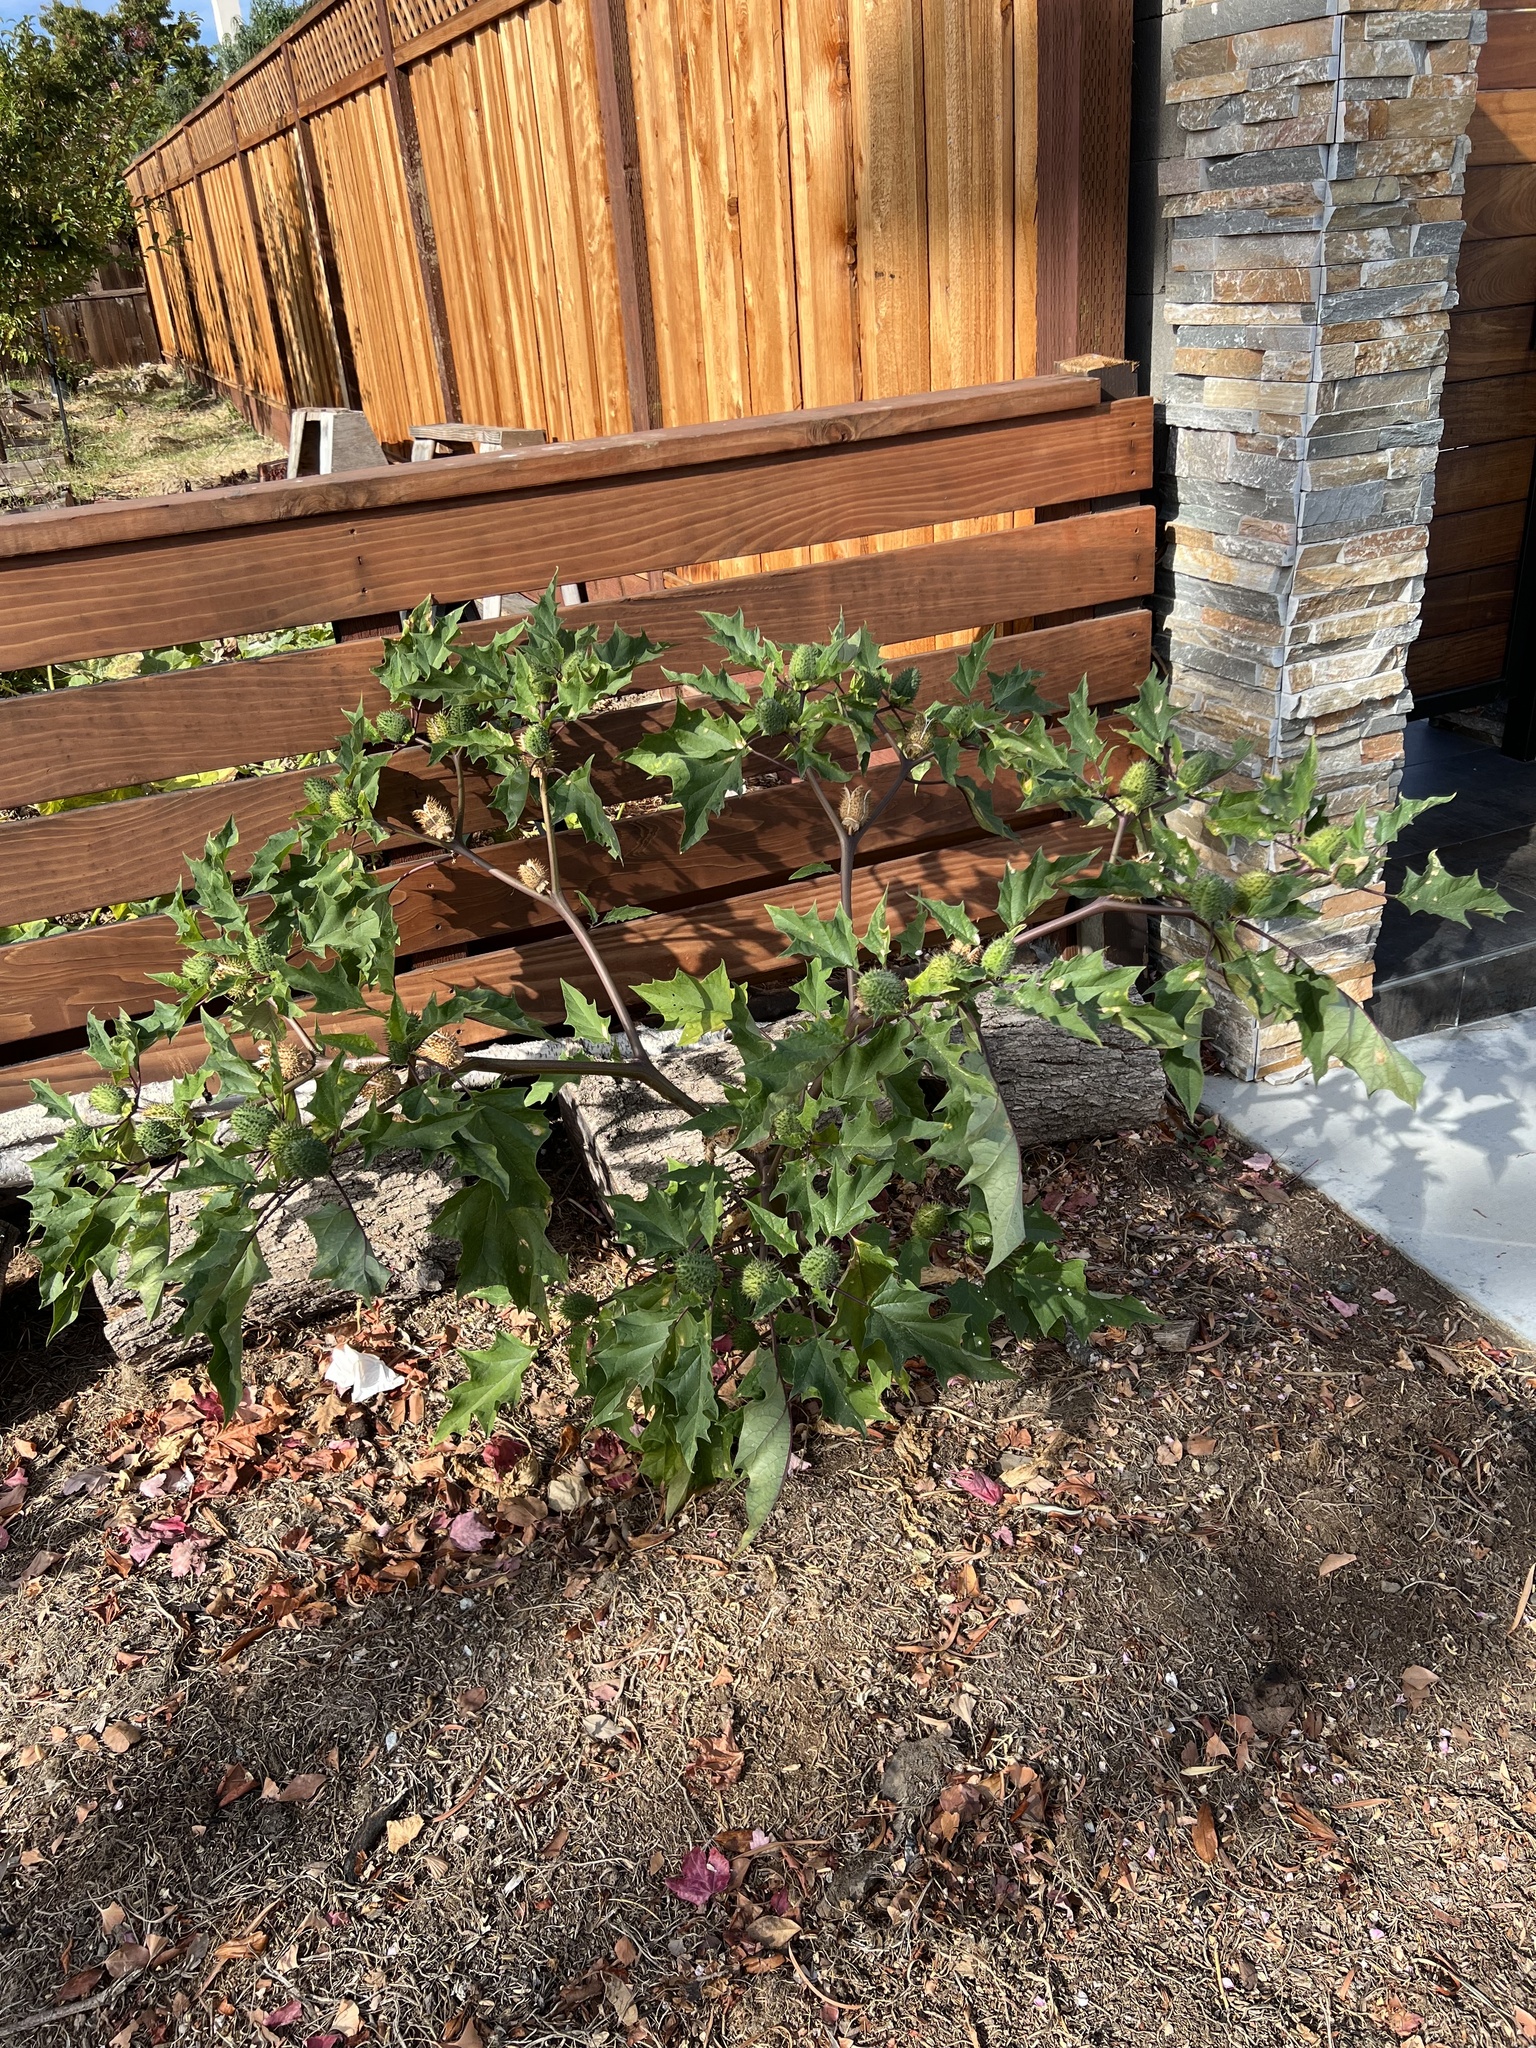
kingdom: Plantae
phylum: Tracheophyta
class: Magnoliopsida
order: Solanales
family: Solanaceae
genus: Datura
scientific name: Datura stramonium
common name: Thorn-apple
